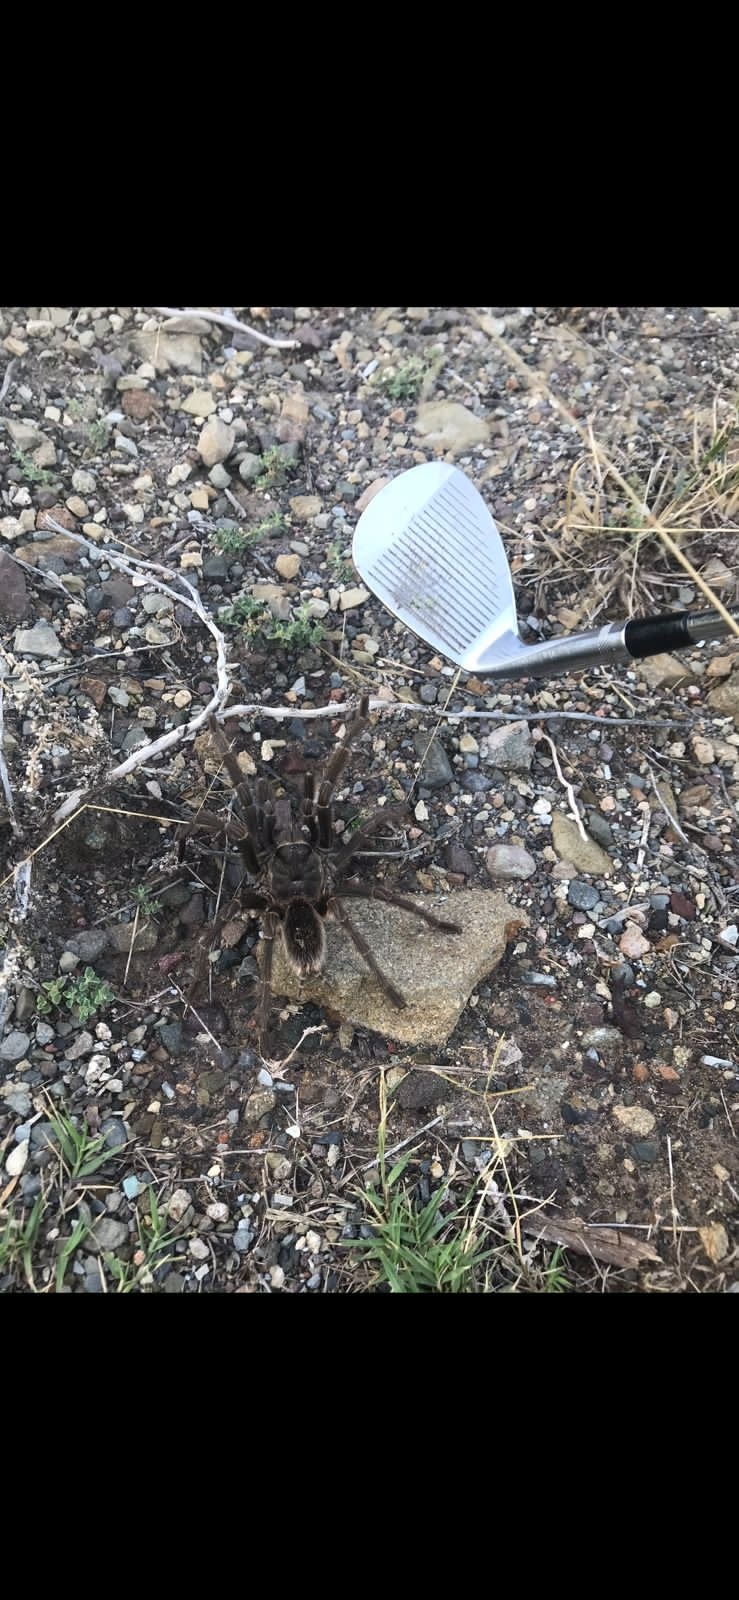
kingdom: Animalia
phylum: Arthropoda
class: Arachnida
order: Araneae
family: Theraphosidae
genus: Grammostola
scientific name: Grammostola inermis
